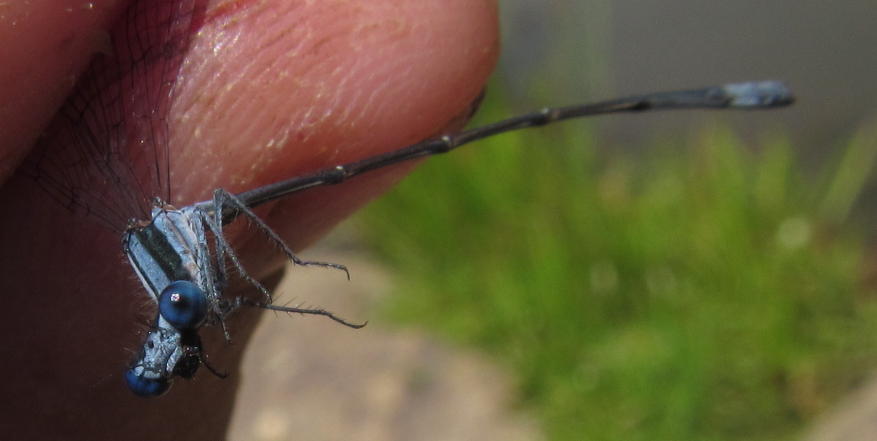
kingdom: Animalia
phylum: Arthropoda
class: Insecta
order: Odonata
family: Platycnemididae
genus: Elattoneura
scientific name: Elattoneura glauca
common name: Common threadtail
